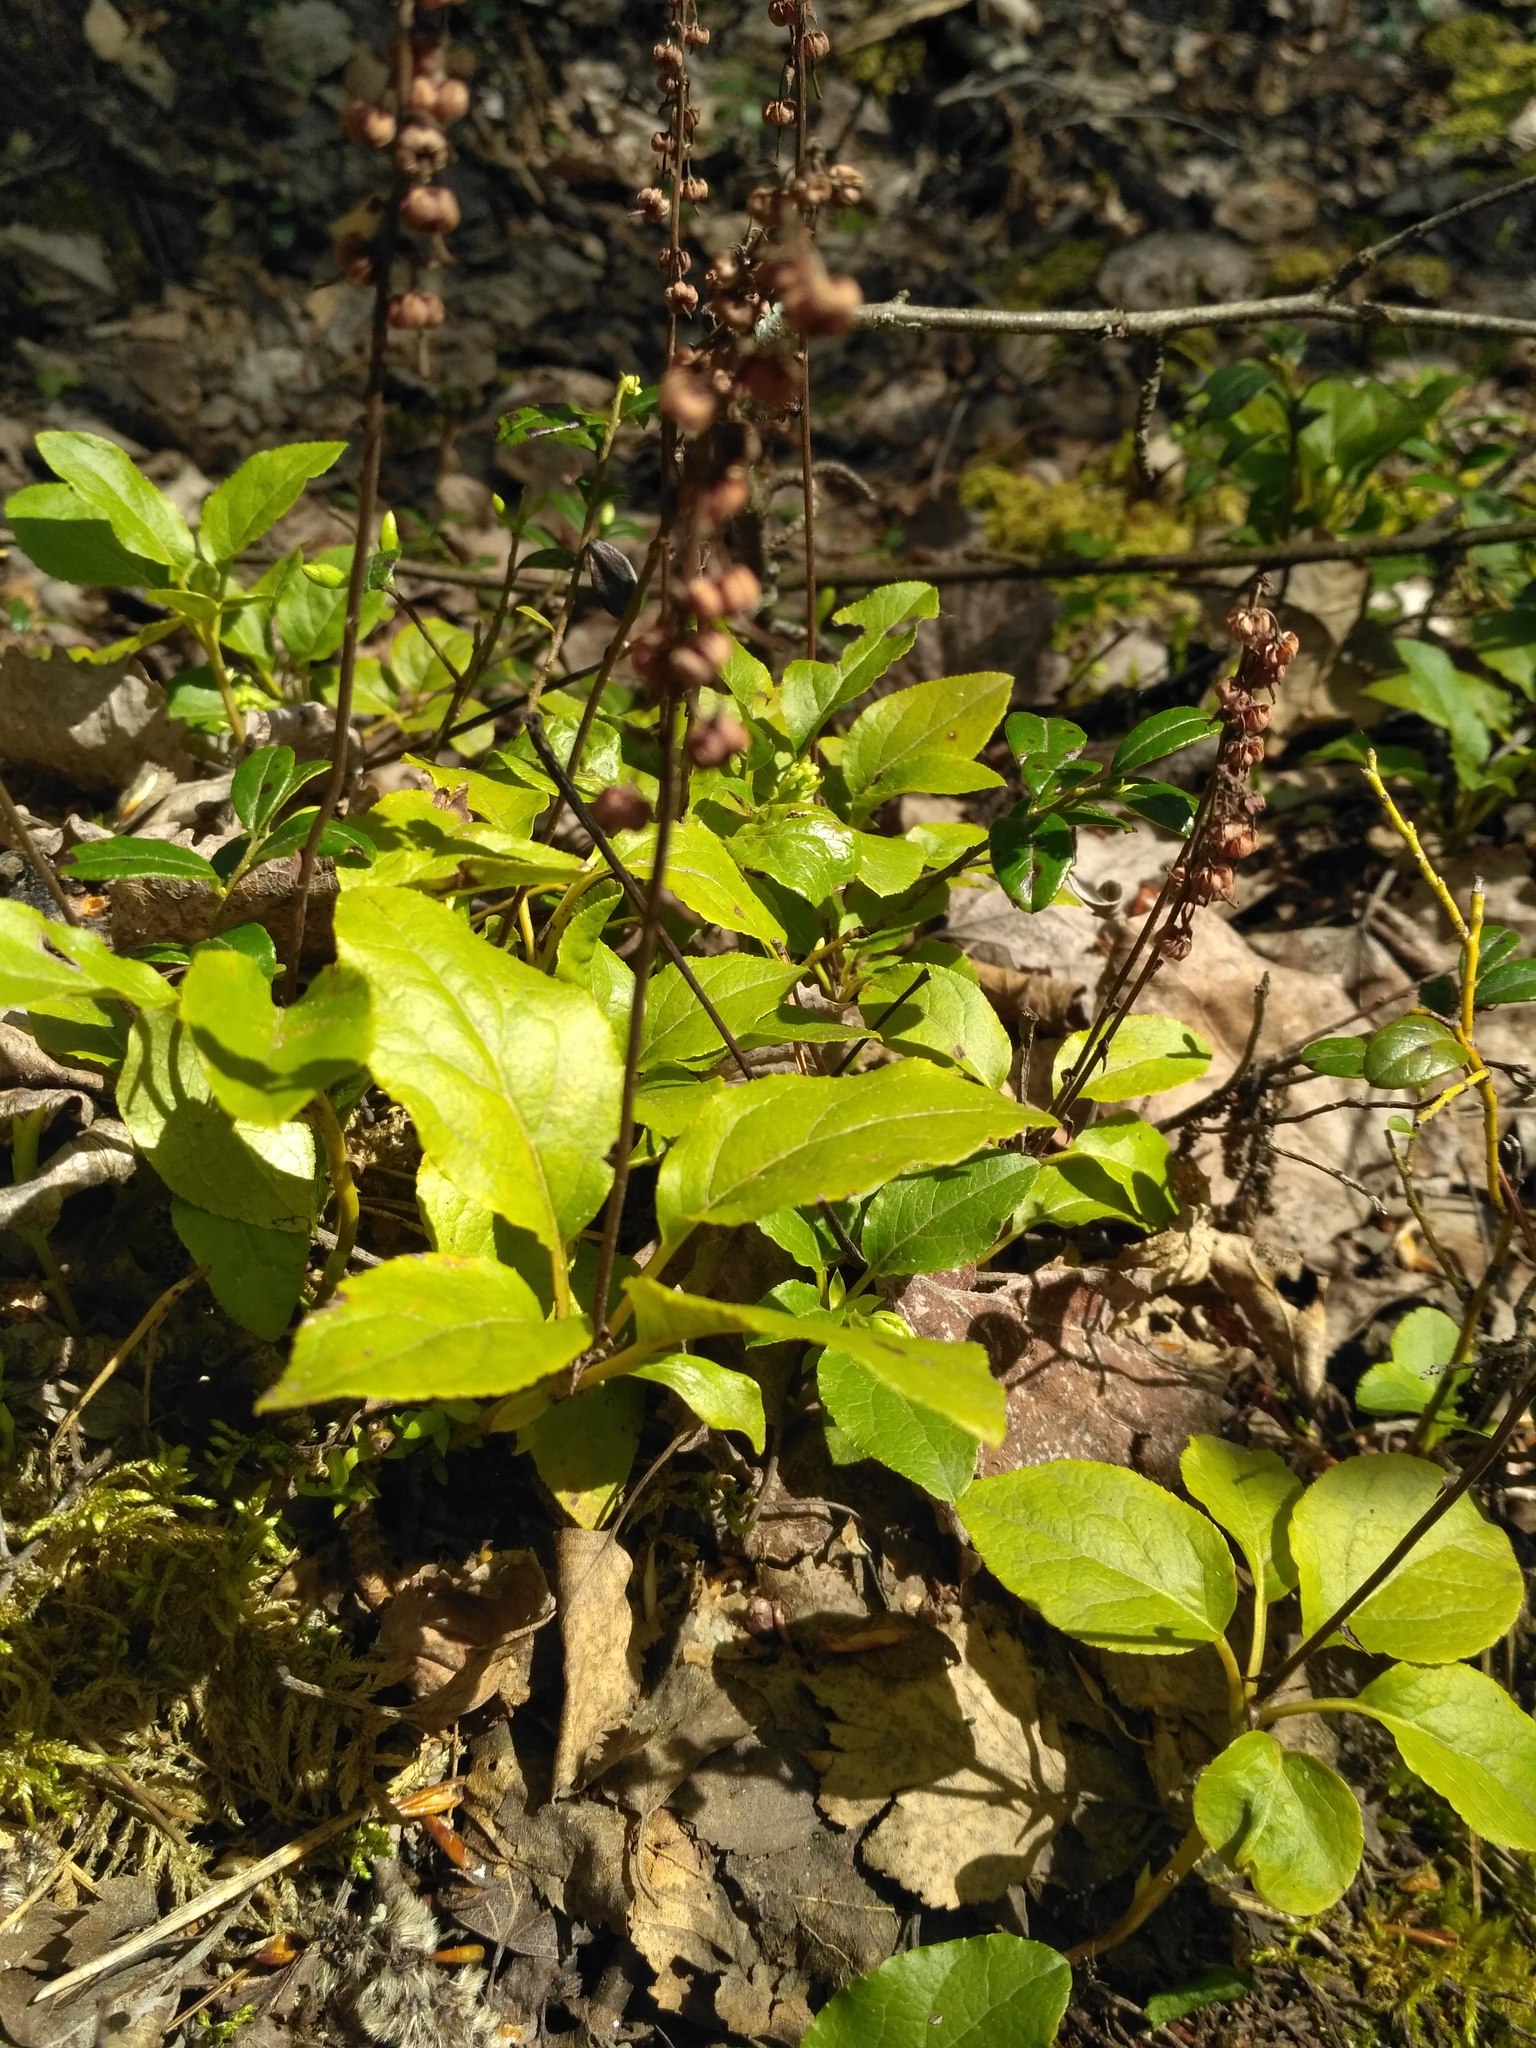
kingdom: Plantae
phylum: Tracheophyta
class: Magnoliopsida
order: Ericales
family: Ericaceae
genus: Orthilia
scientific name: Orthilia secunda
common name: One-sided orthilia
